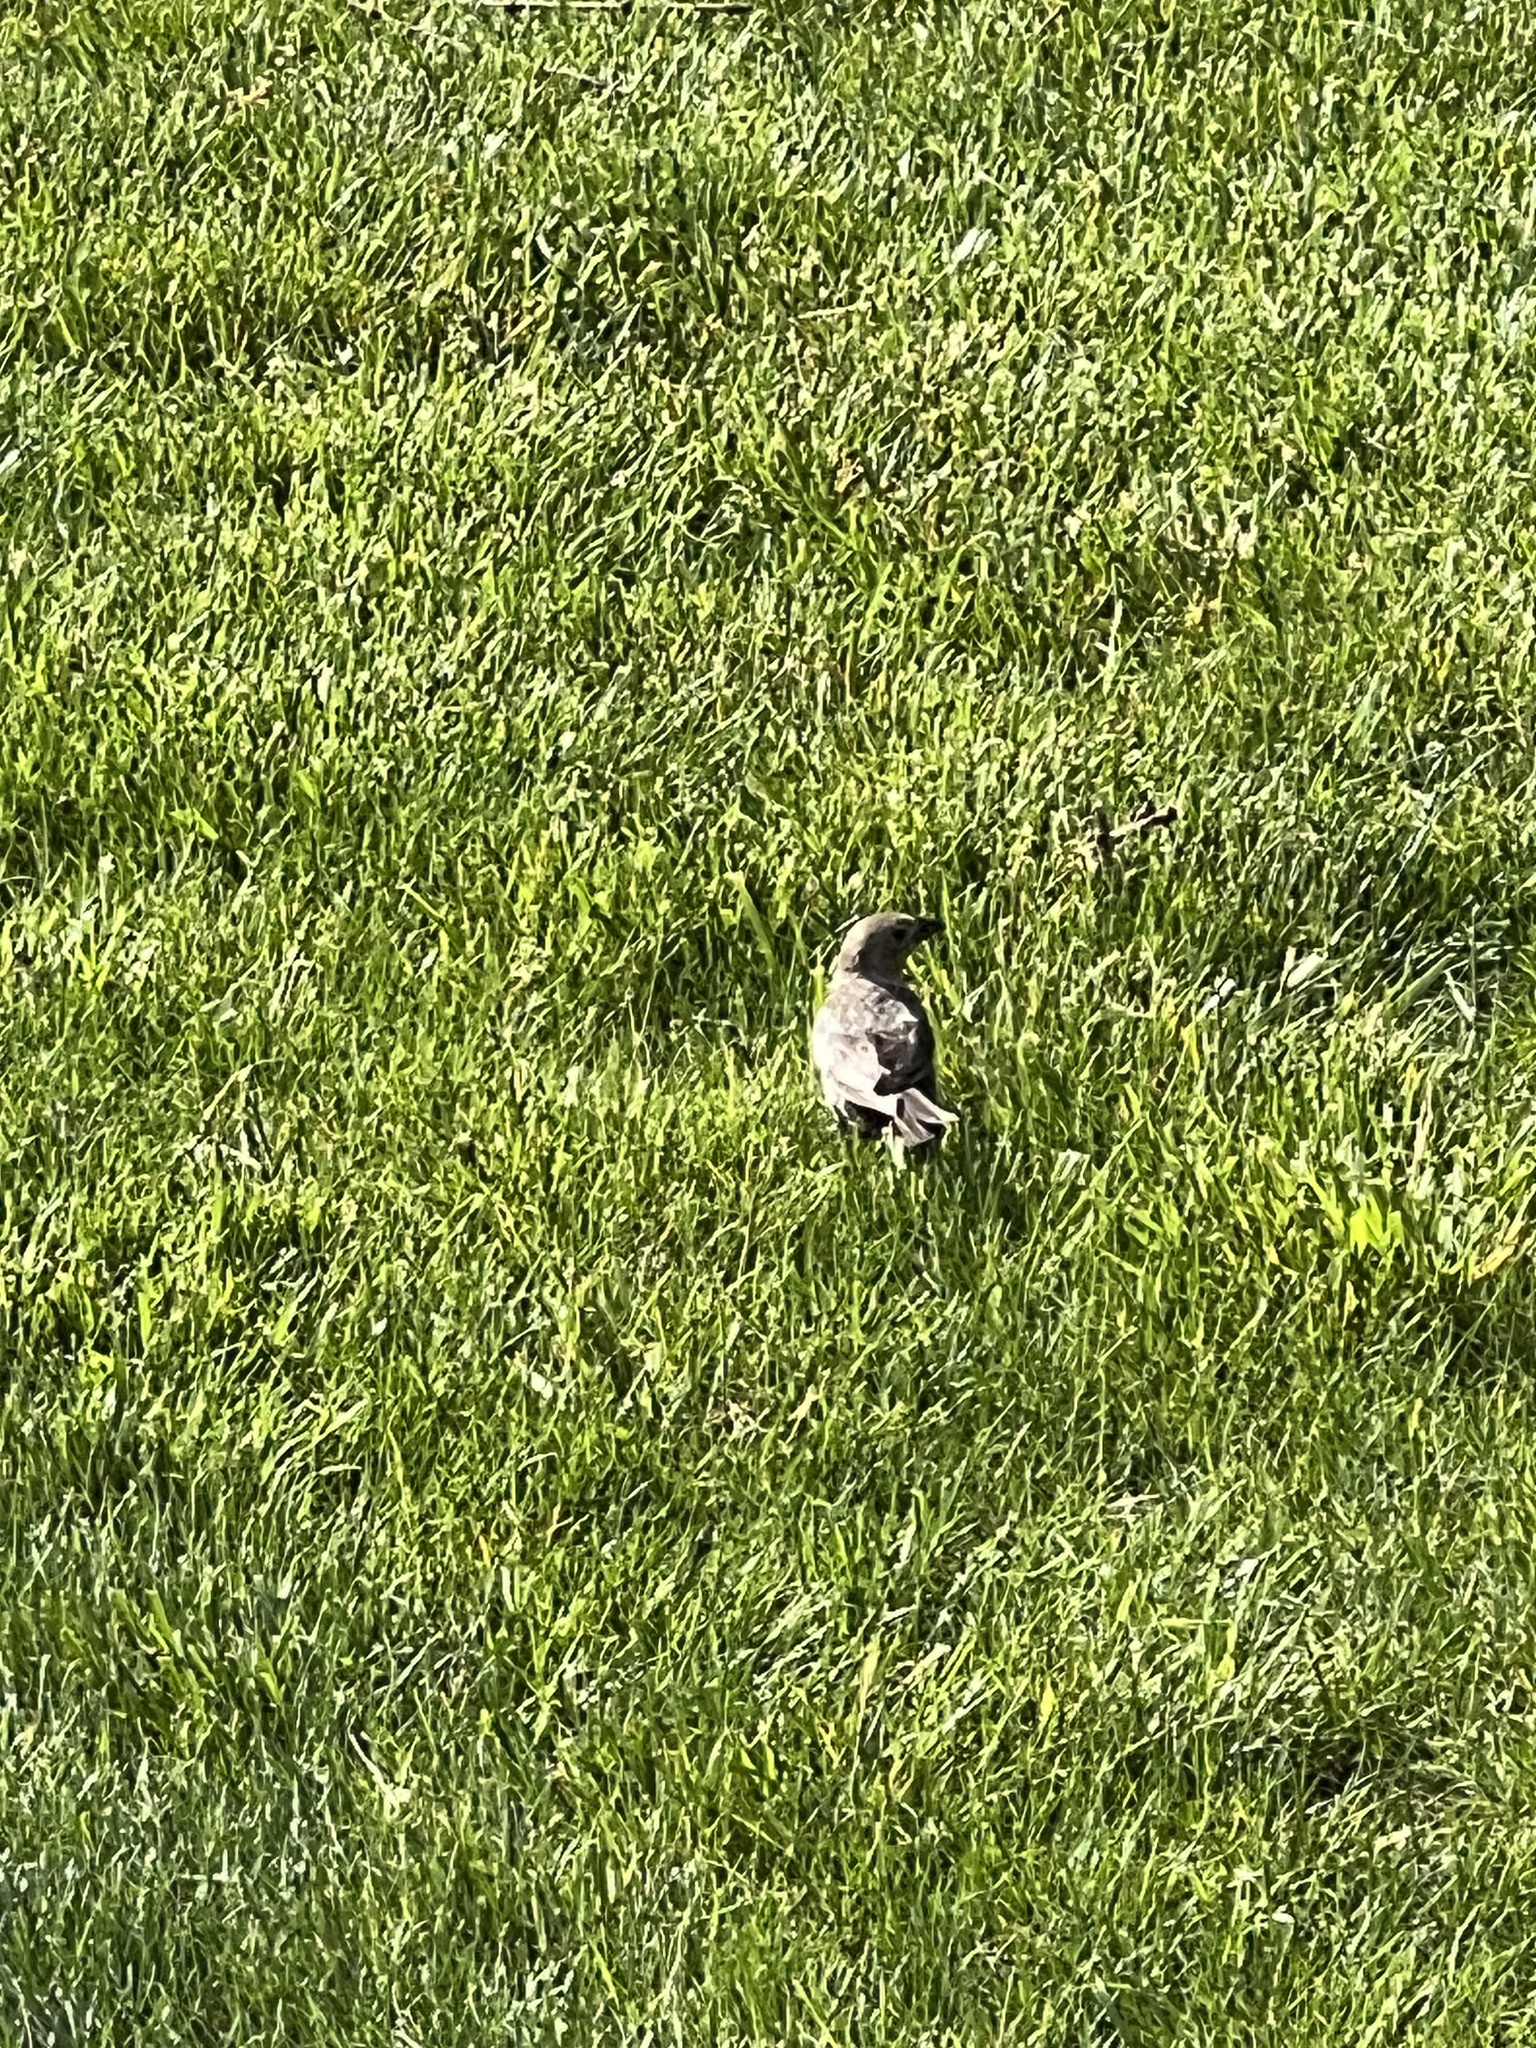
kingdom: Animalia
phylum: Chordata
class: Aves
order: Passeriformes
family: Icteridae
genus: Molothrus
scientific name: Molothrus ater
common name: Brown-headed cowbird
